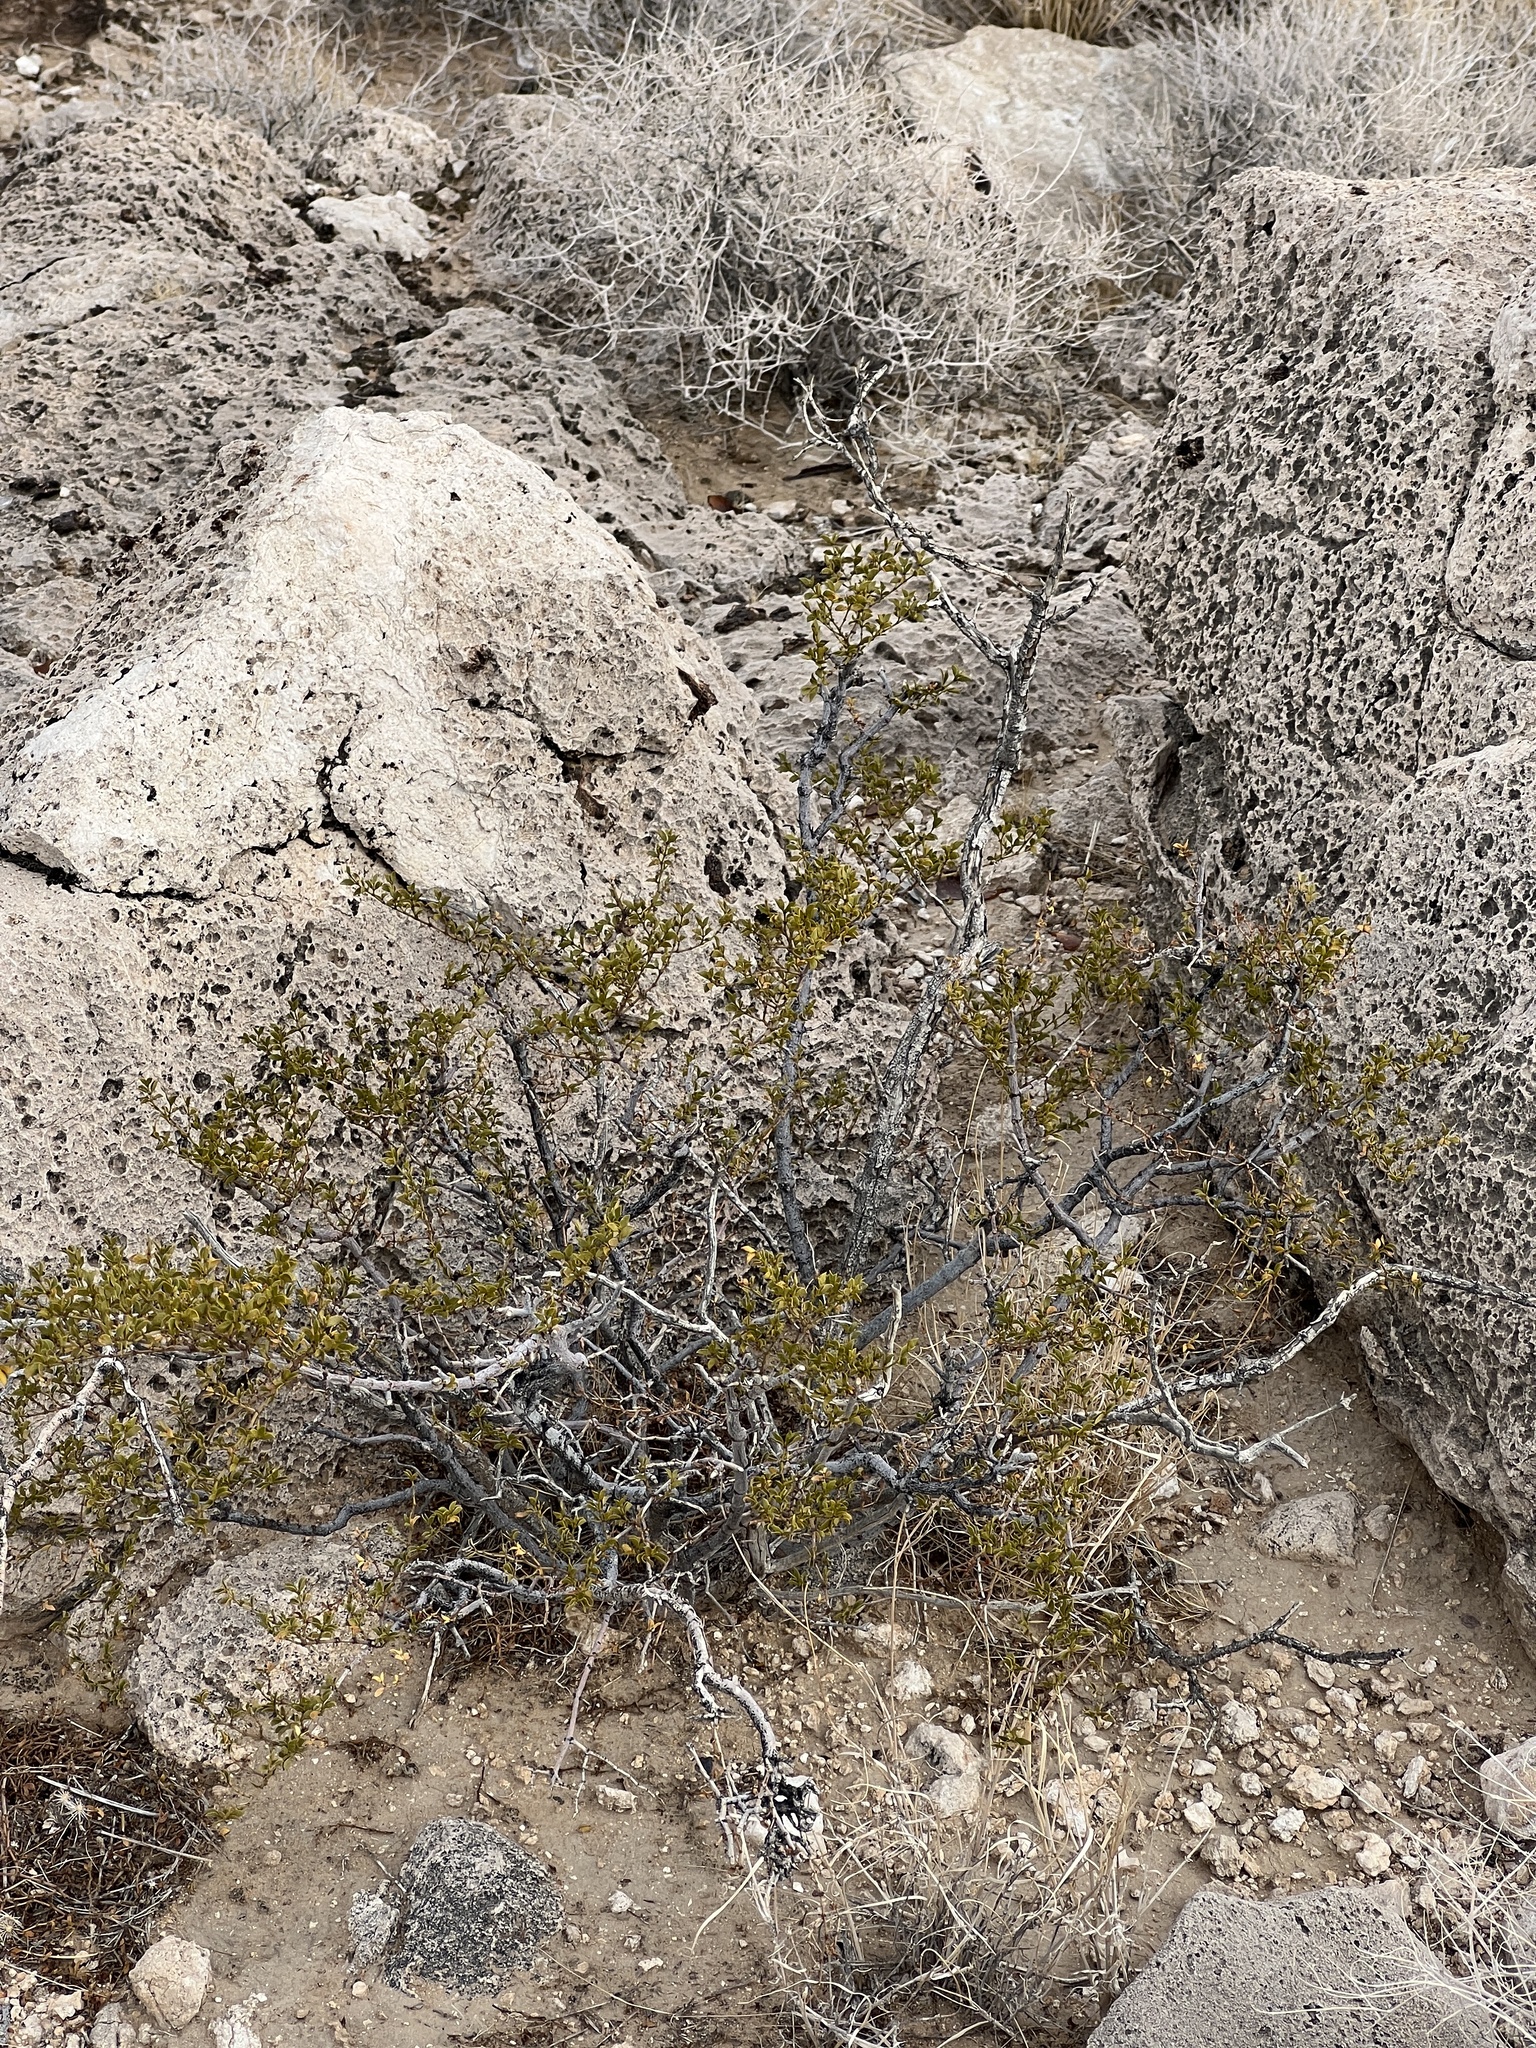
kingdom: Plantae
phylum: Tracheophyta
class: Magnoliopsida
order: Zygophyllales
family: Zygophyllaceae
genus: Larrea
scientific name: Larrea tridentata
